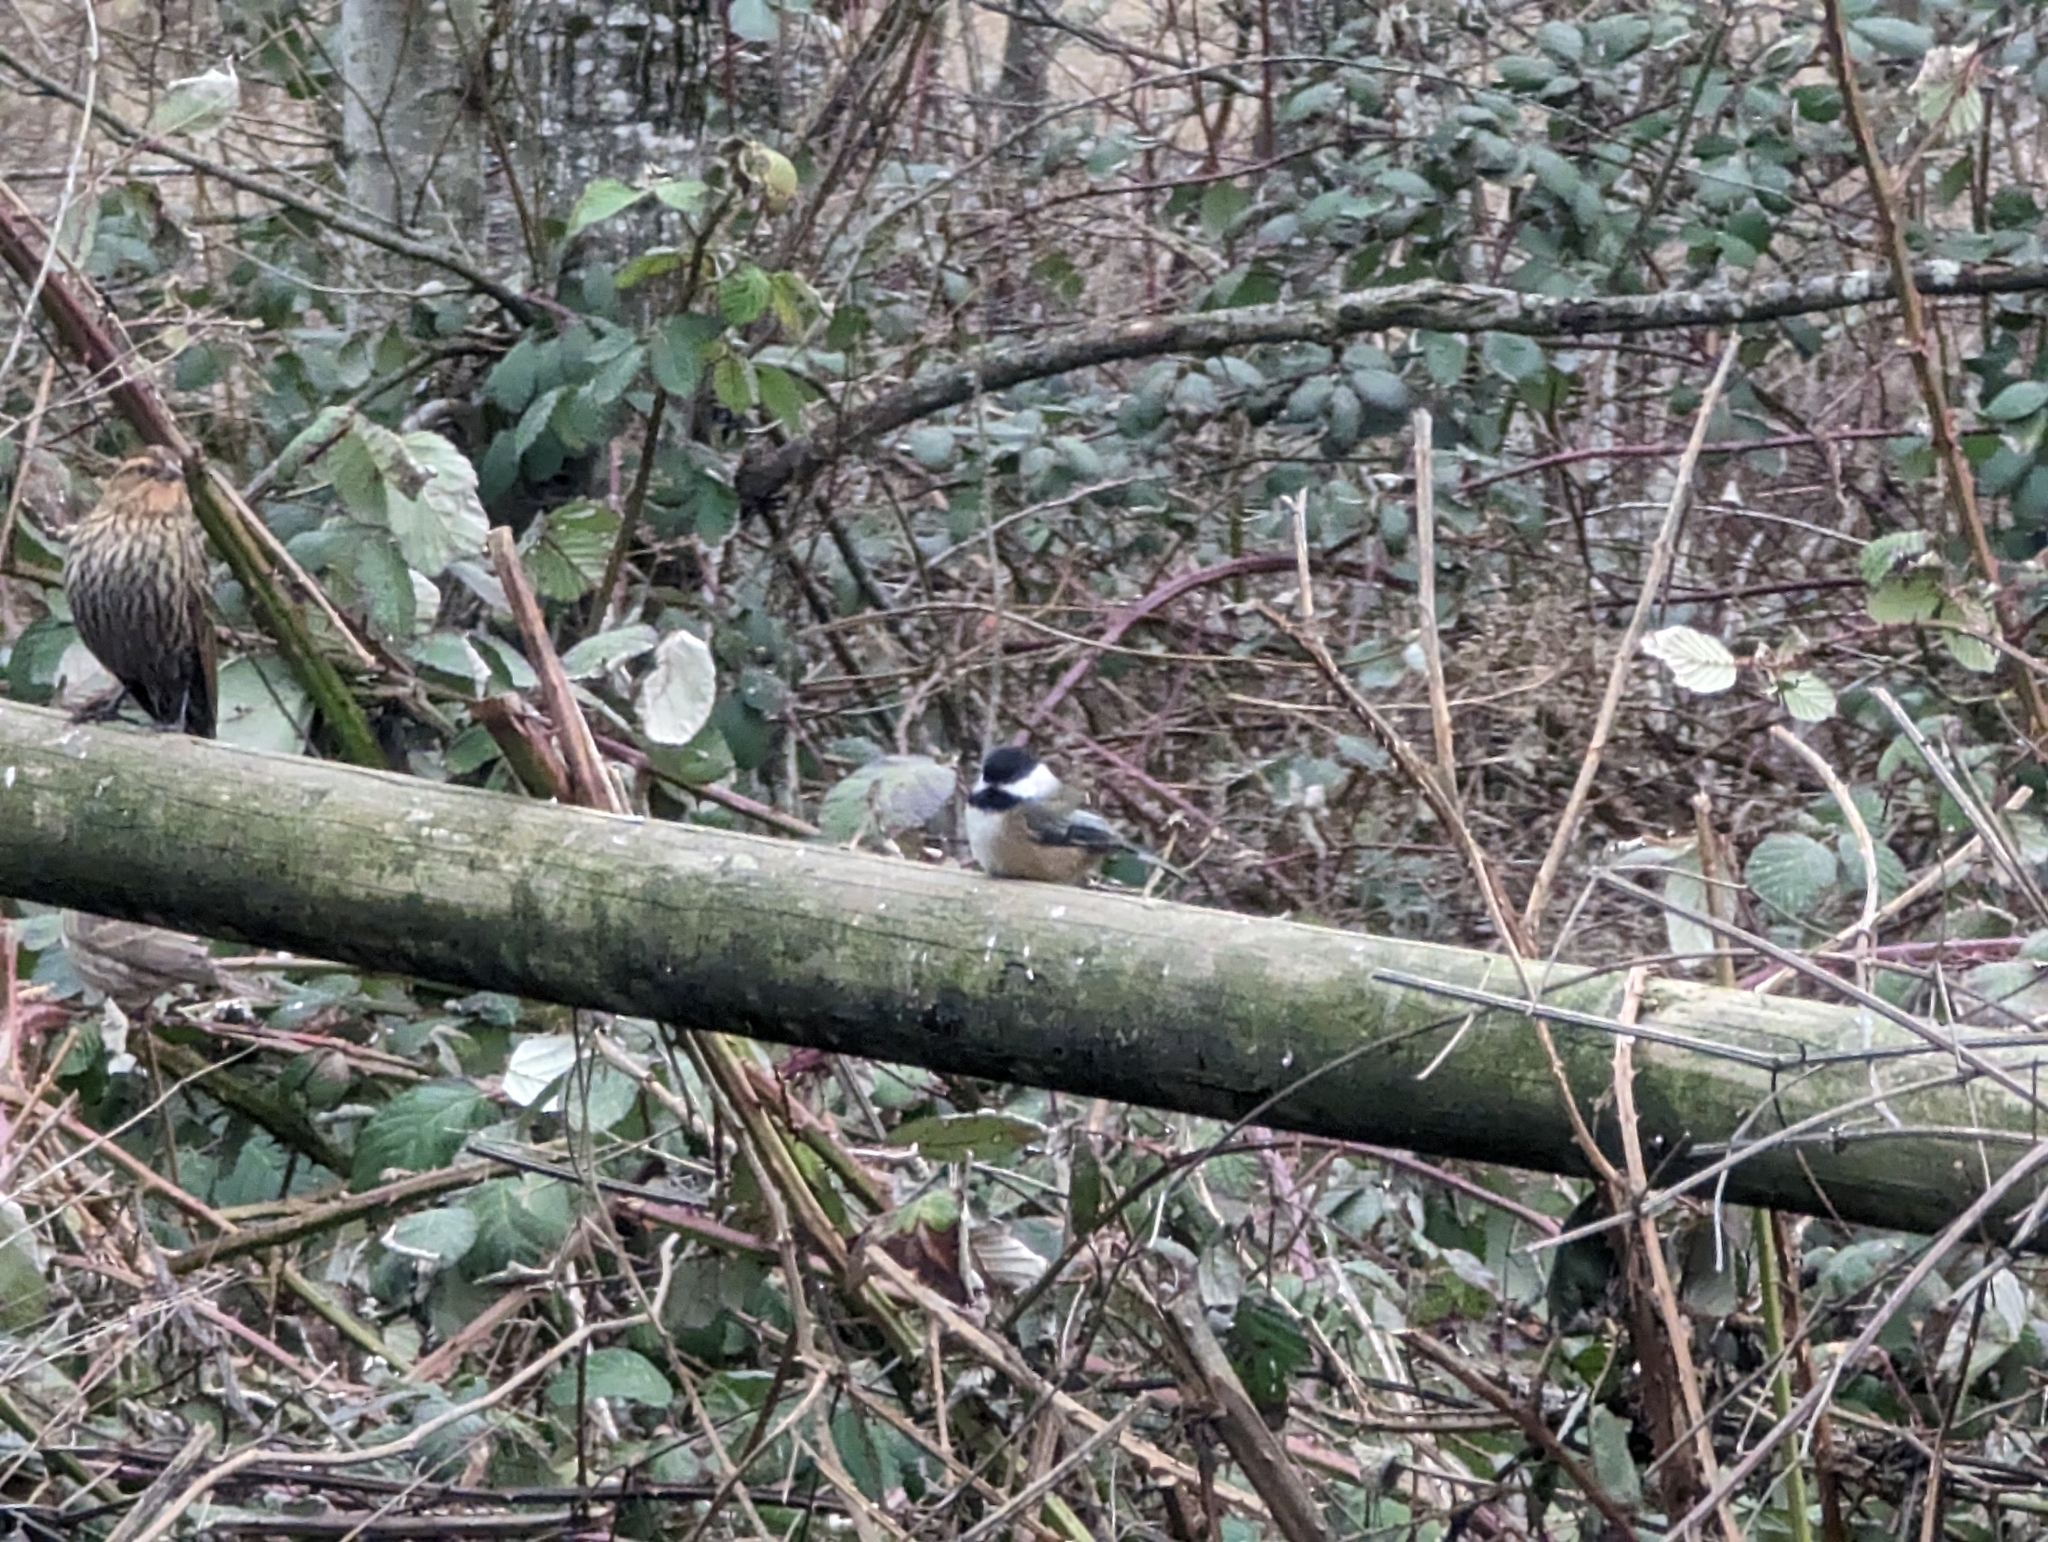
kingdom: Animalia
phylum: Chordata
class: Aves
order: Passeriformes
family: Paridae
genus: Poecile
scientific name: Poecile atricapillus
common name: Black-capped chickadee
